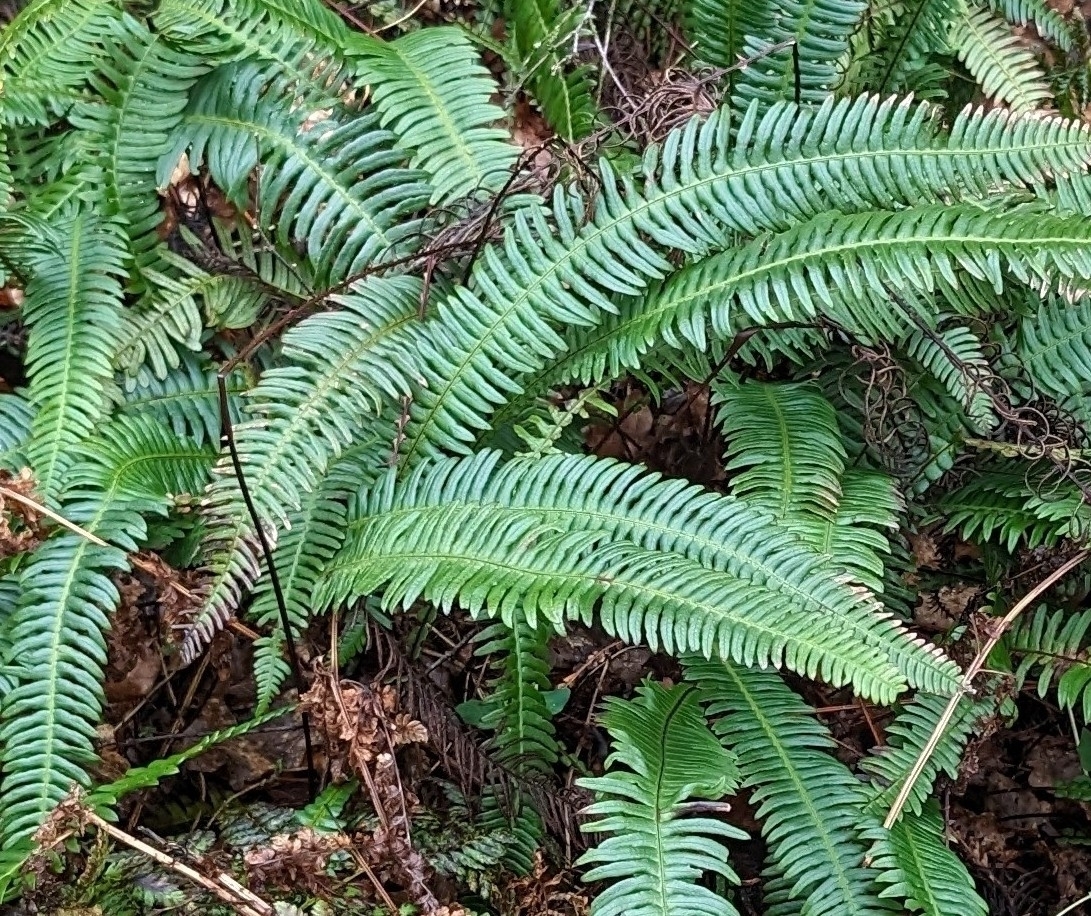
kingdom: Plantae
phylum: Tracheophyta
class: Polypodiopsida
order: Polypodiales
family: Blechnaceae
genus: Struthiopteris
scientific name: Struthiopteris spicant
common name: Deer fern
